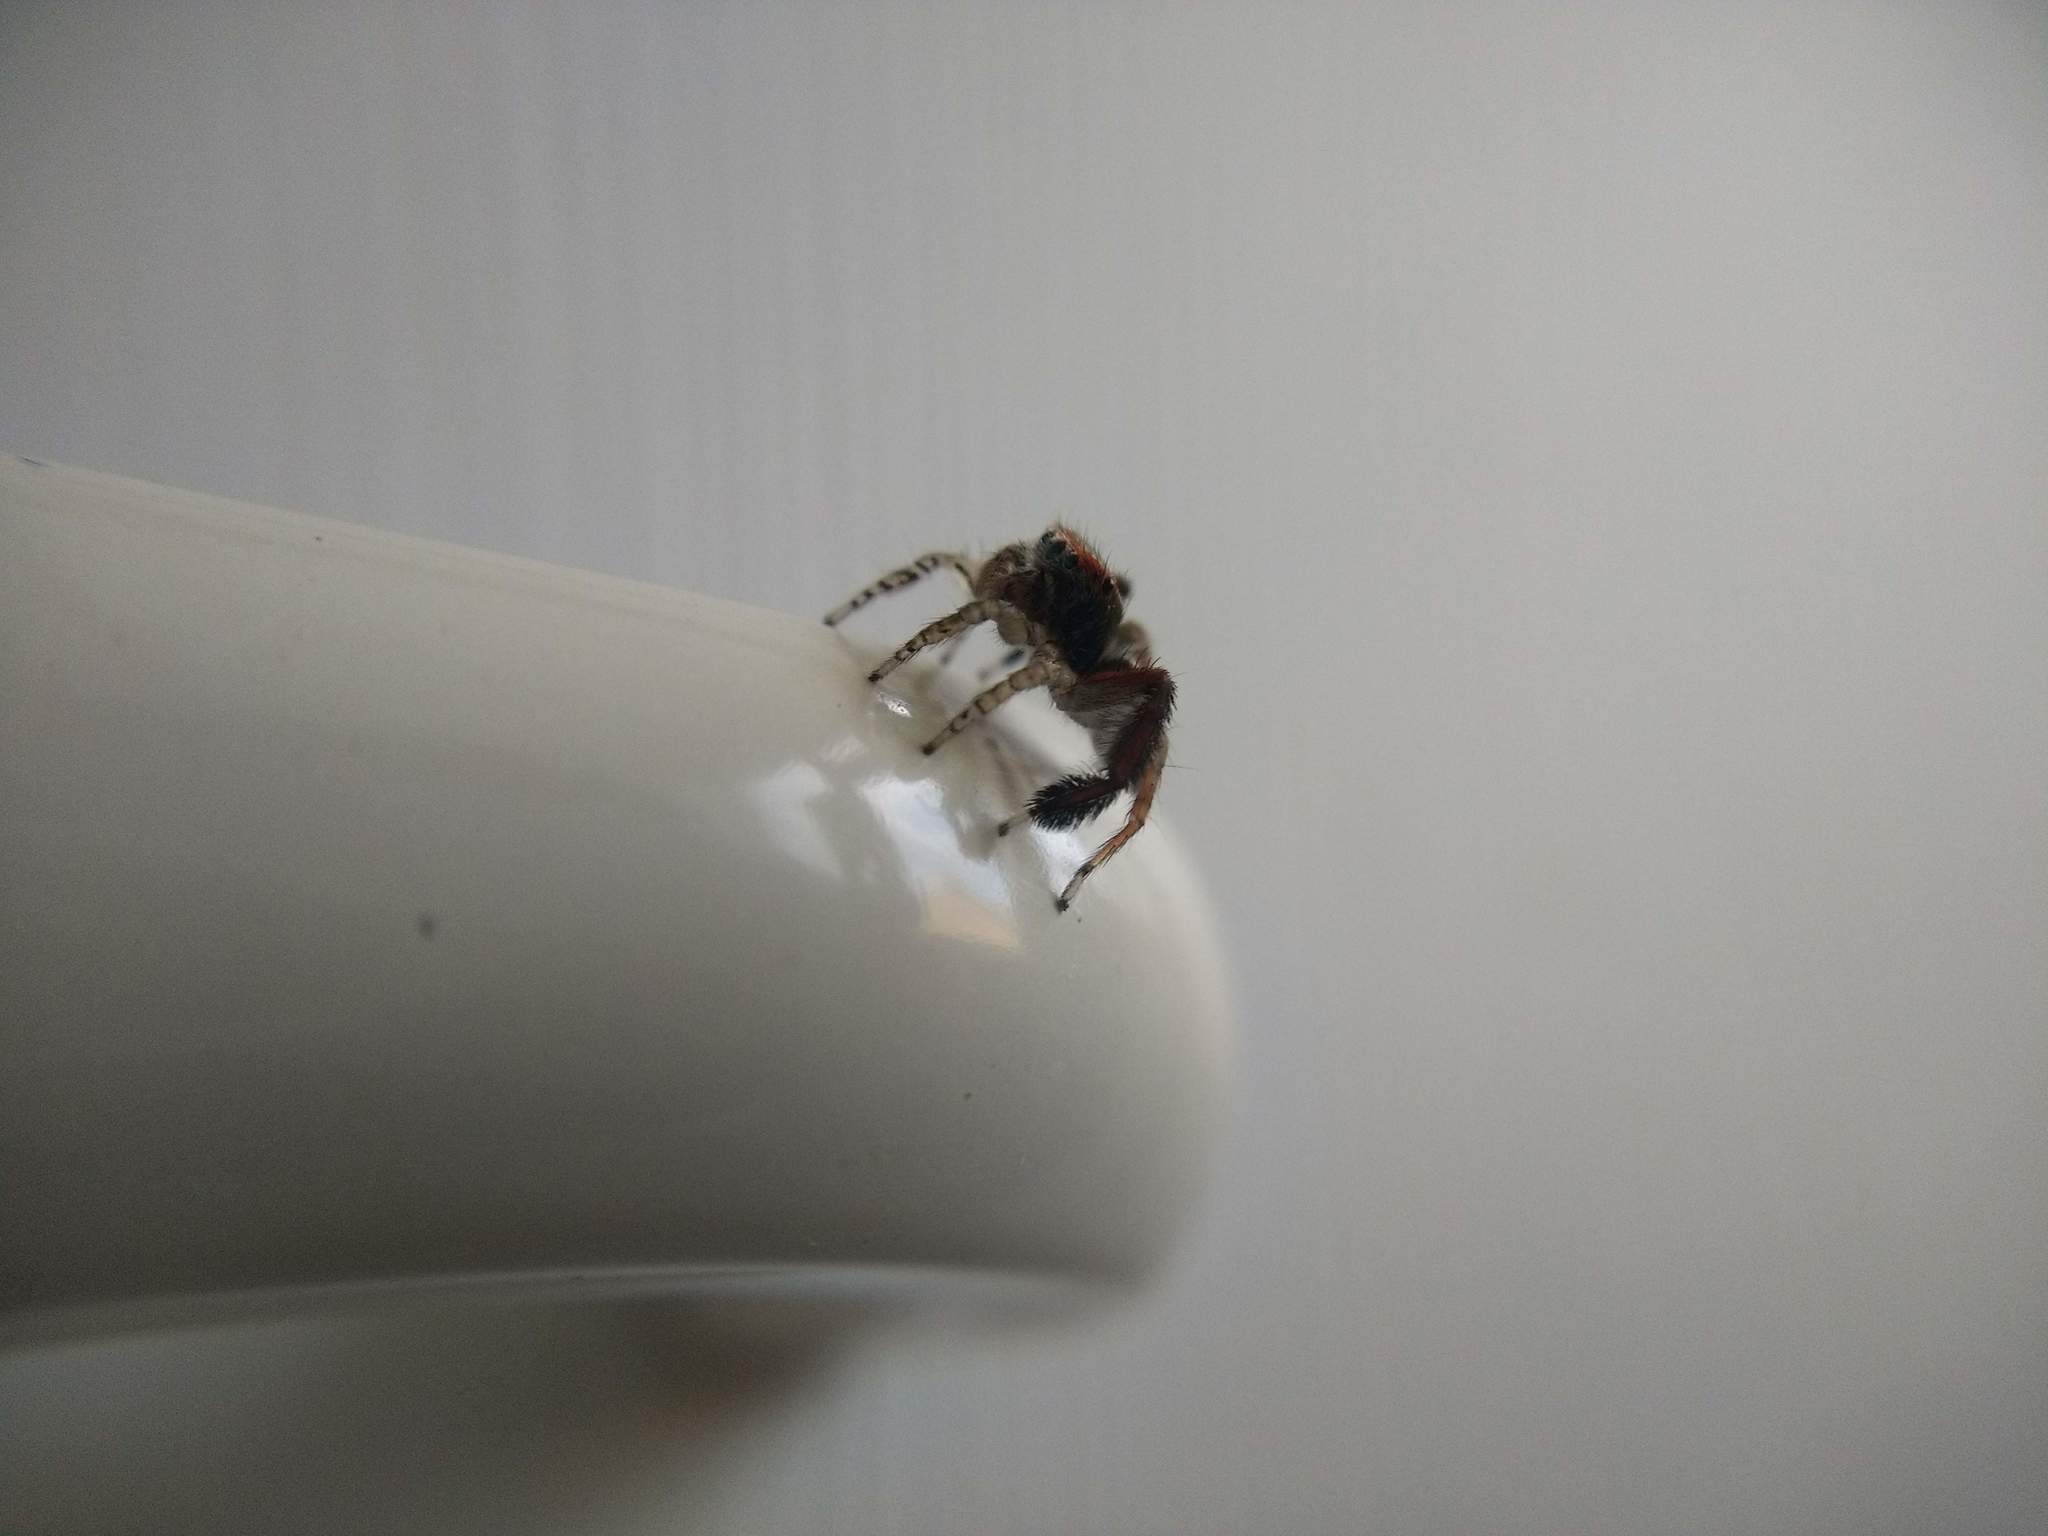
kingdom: Animalia
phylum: Arthropoda
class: Arachnida
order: Araneae
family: Salticidae
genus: Saitis
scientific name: Saitis barbipes
